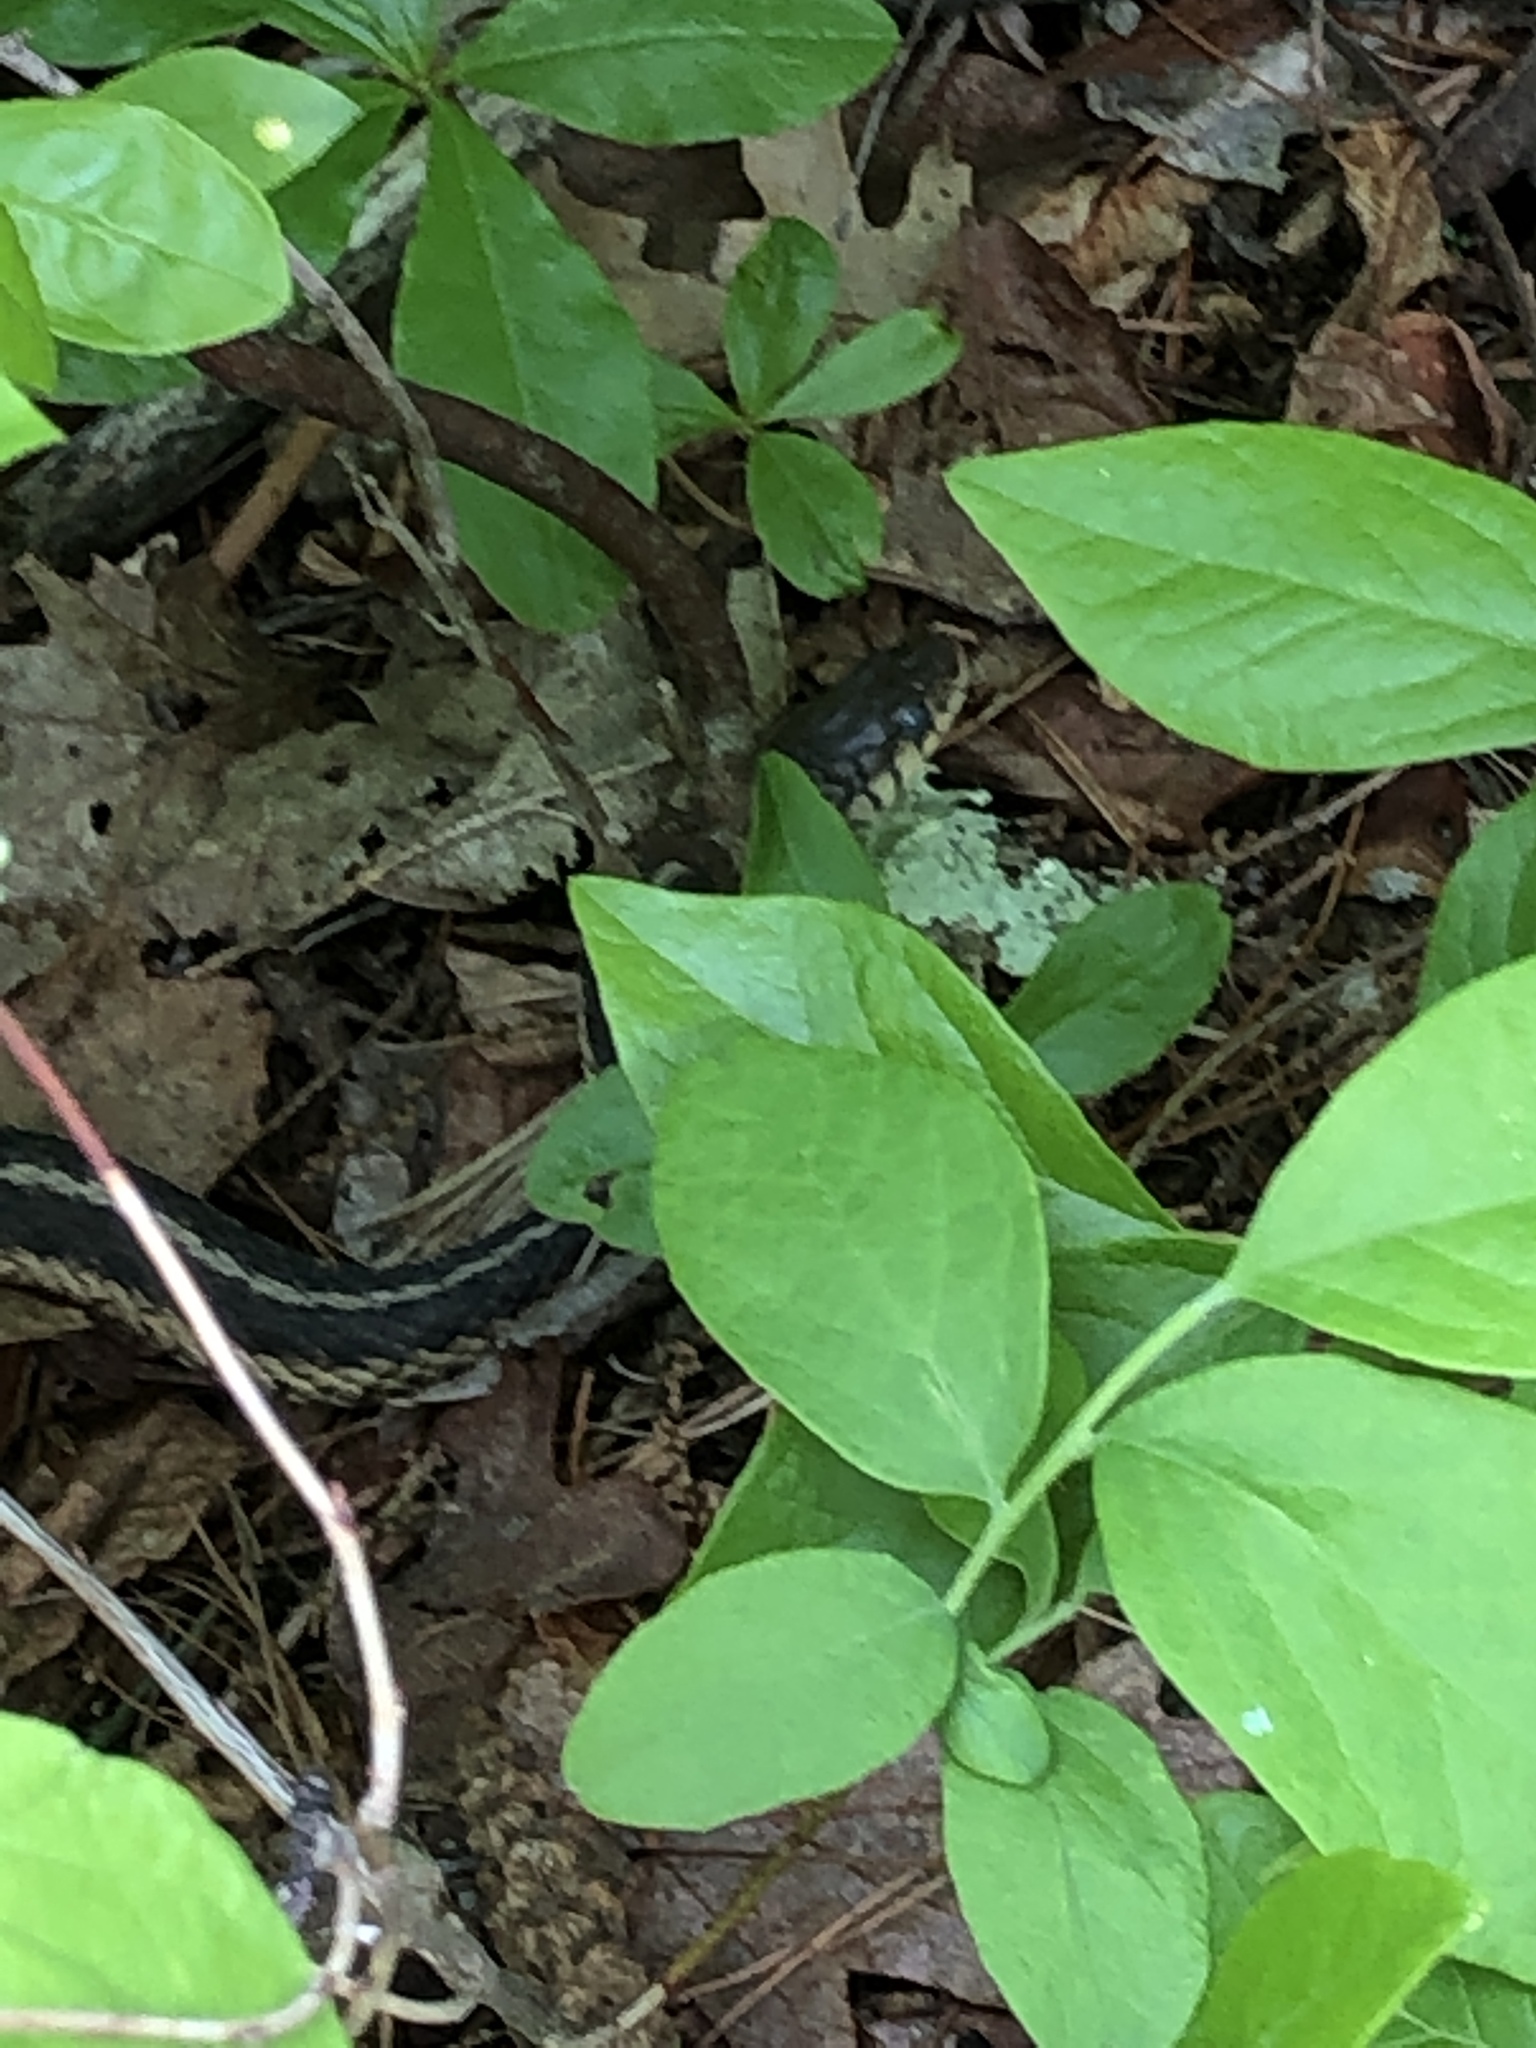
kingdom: Animalia
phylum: Chordata
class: Squamata
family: Colubridae
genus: Thamnophis
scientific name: Thamnophis sirtalis
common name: Common garter snake
